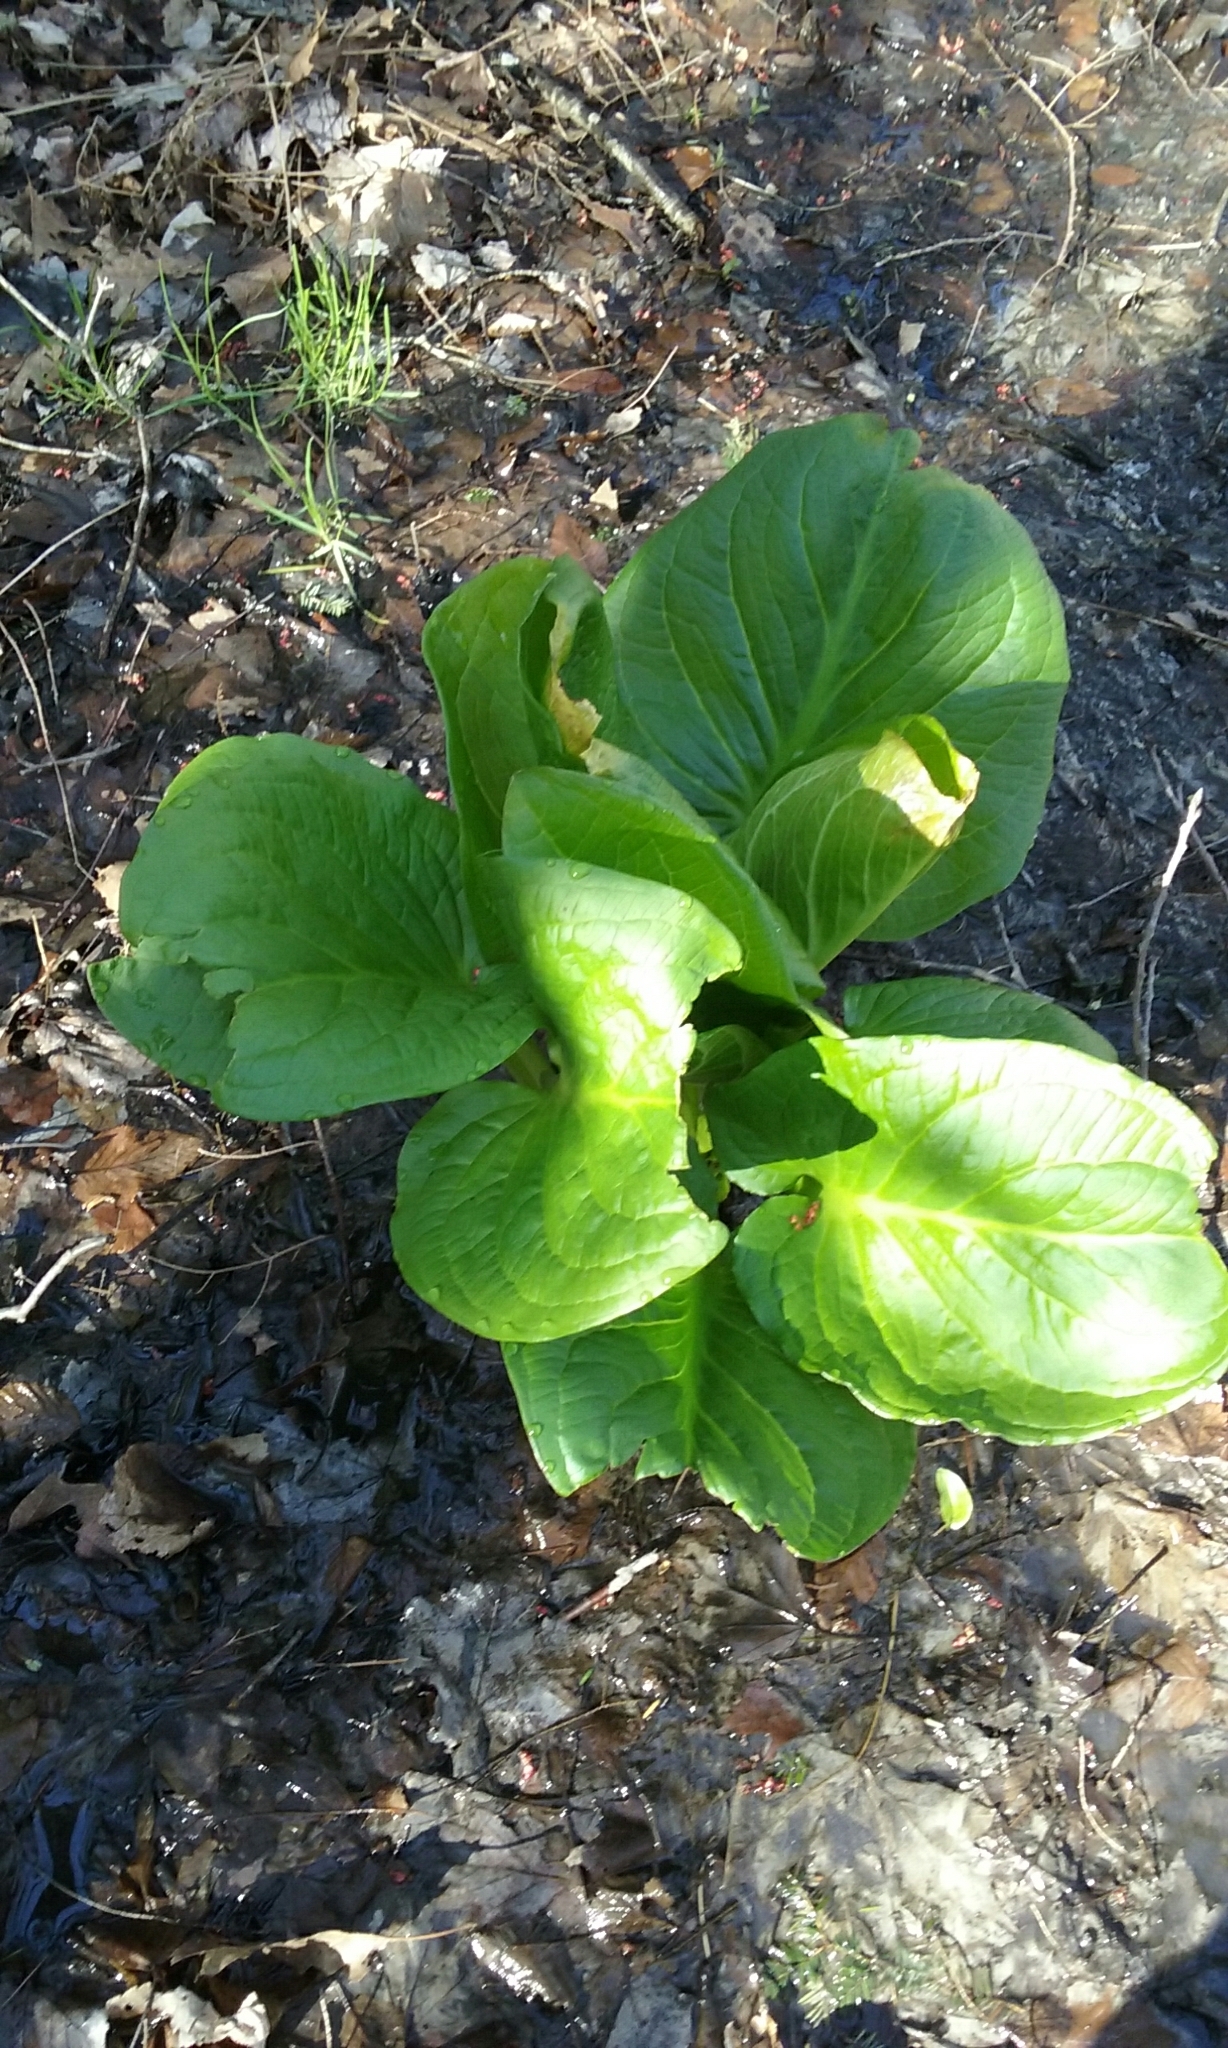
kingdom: Plantae
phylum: Tracheophyta
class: Liliopsida
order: Alismatales
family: Araceae
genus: Symplocarpus
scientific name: Symplocarpus foetidus
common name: Eastern skunk cabbage
